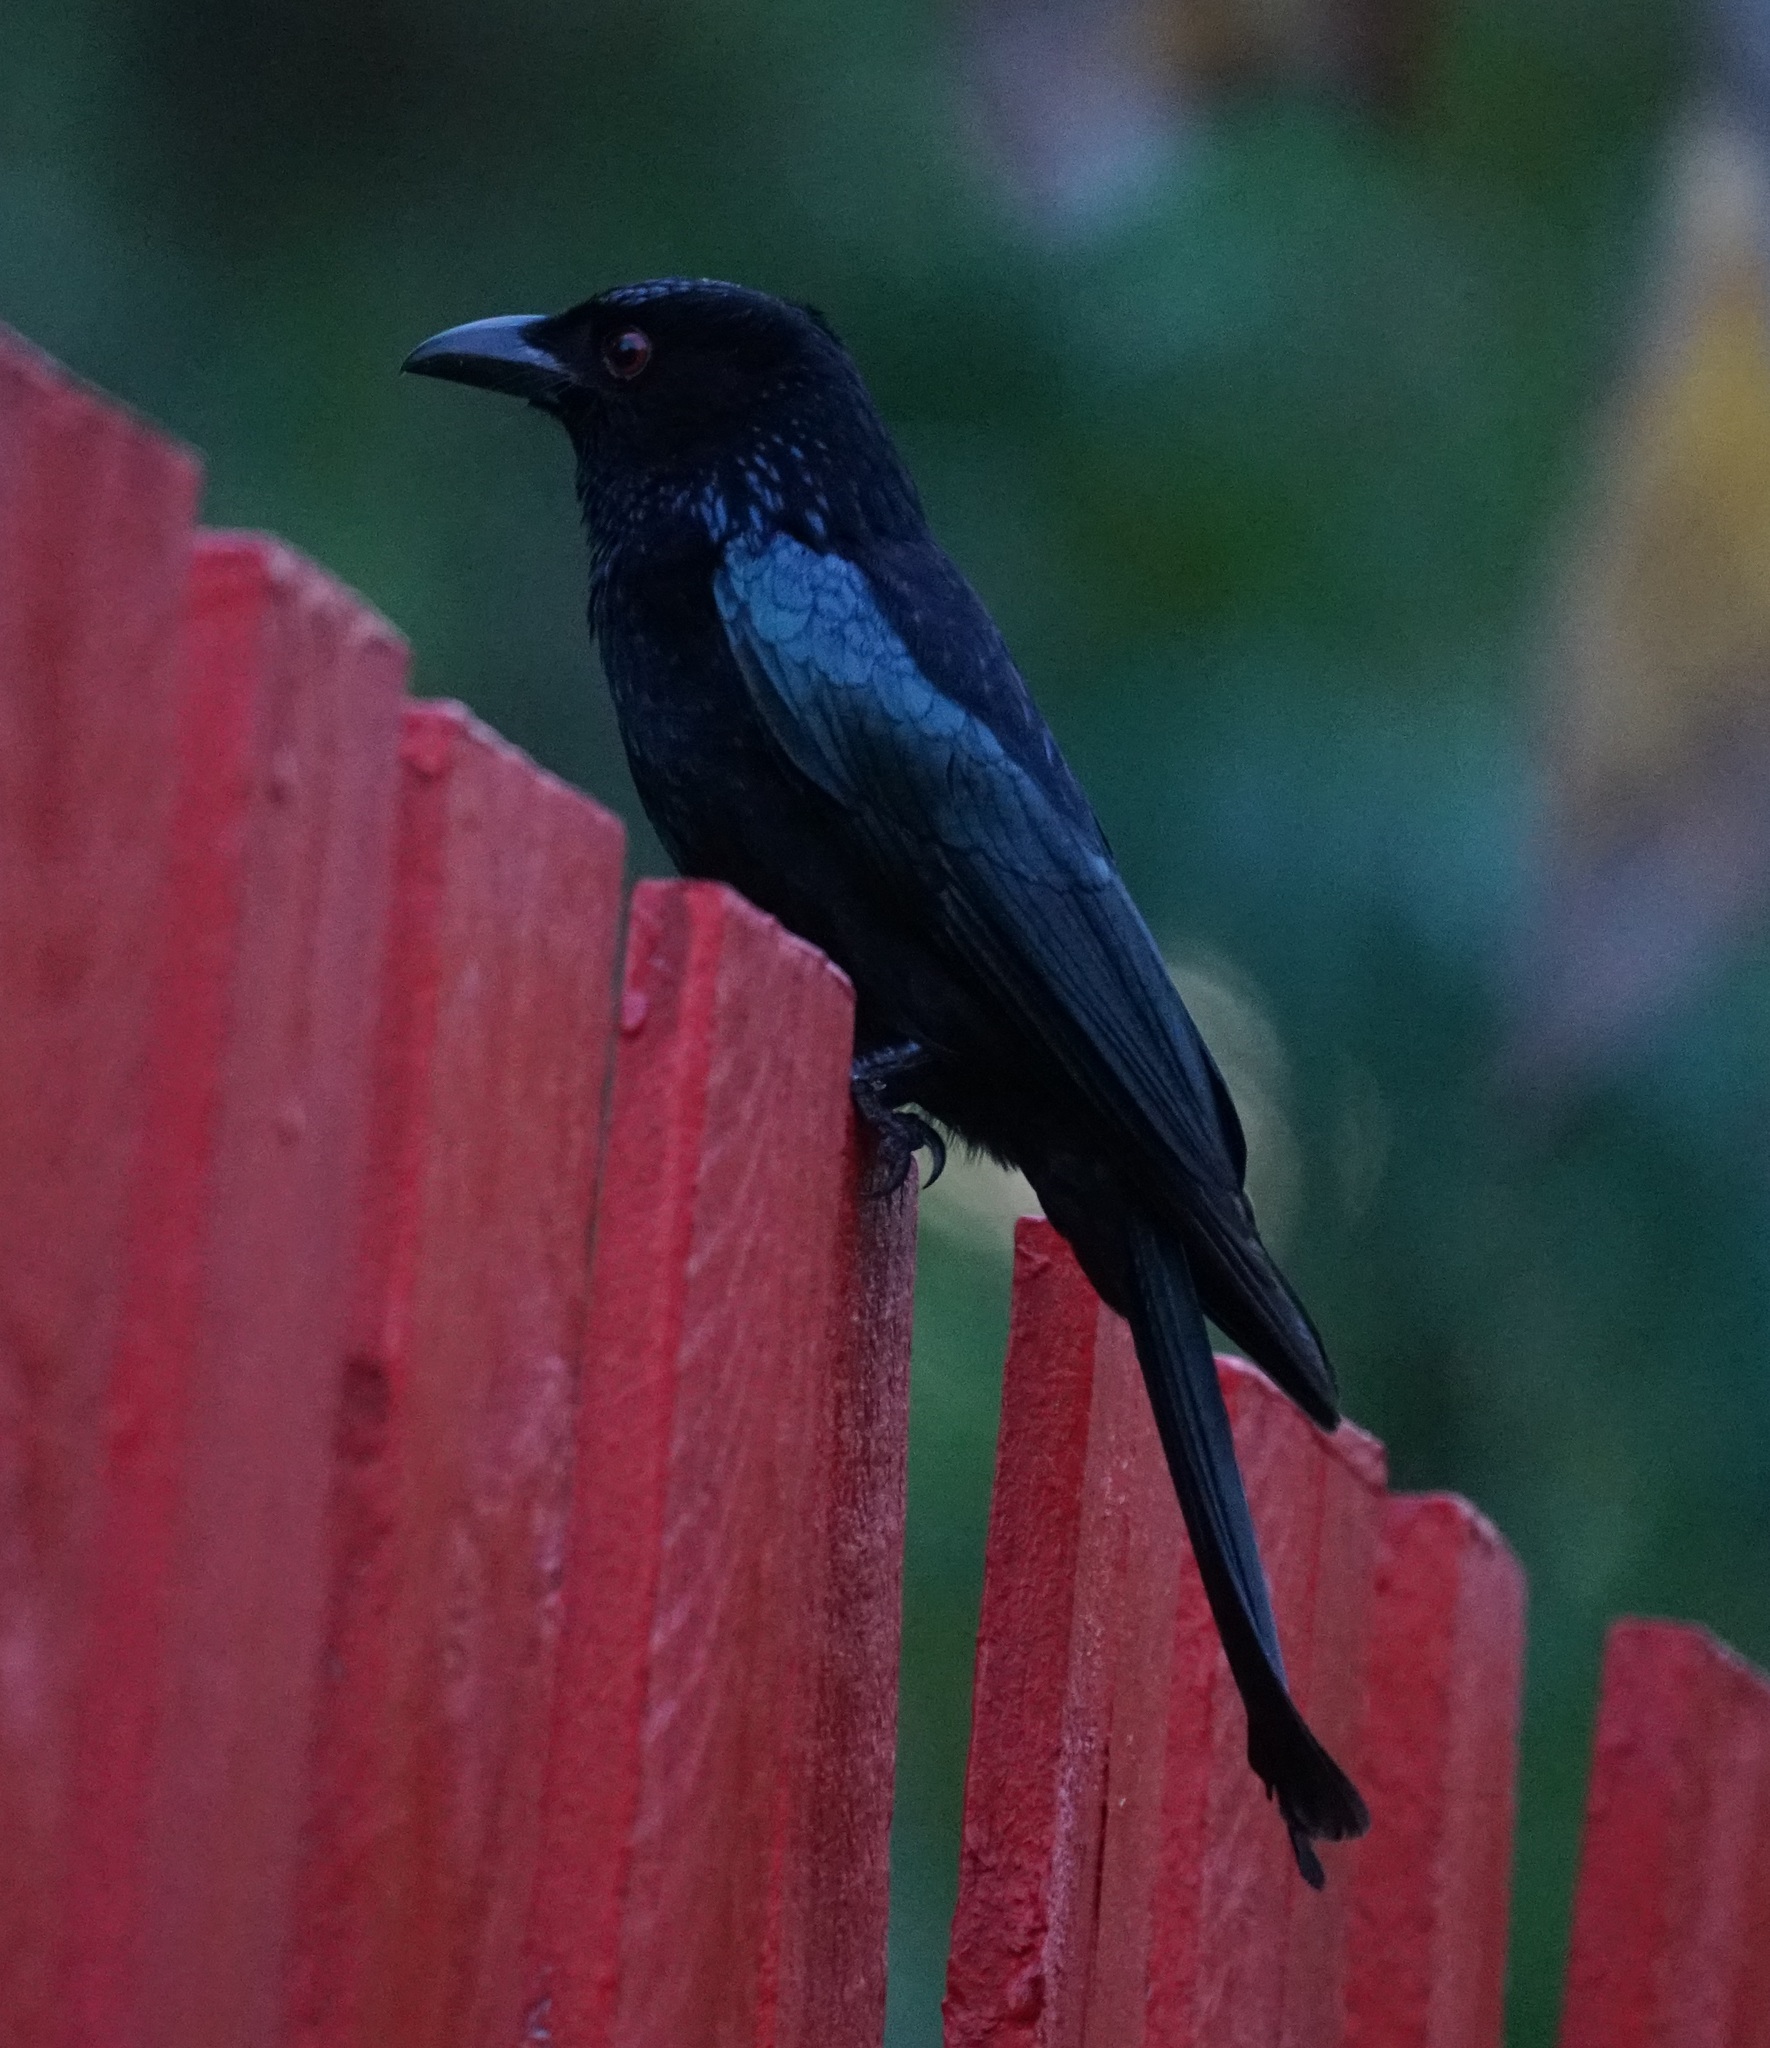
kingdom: Animalia
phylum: Chordata
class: Aves
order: Passeriformes
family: Dicruridae
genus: Dicrurus
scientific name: Dicrurus bracteatus
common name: Spangled drongo
